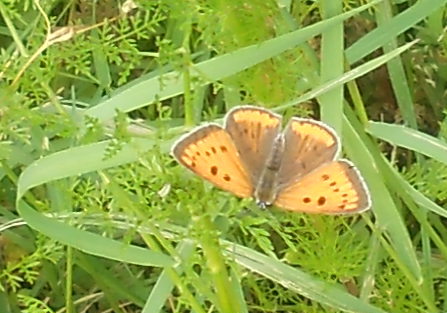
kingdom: Animalia
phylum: Arthropoda
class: Insecta
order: Lepidoptera
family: Lycaenidae
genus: Lycaena
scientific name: Lycaena dispar
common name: Large copper
